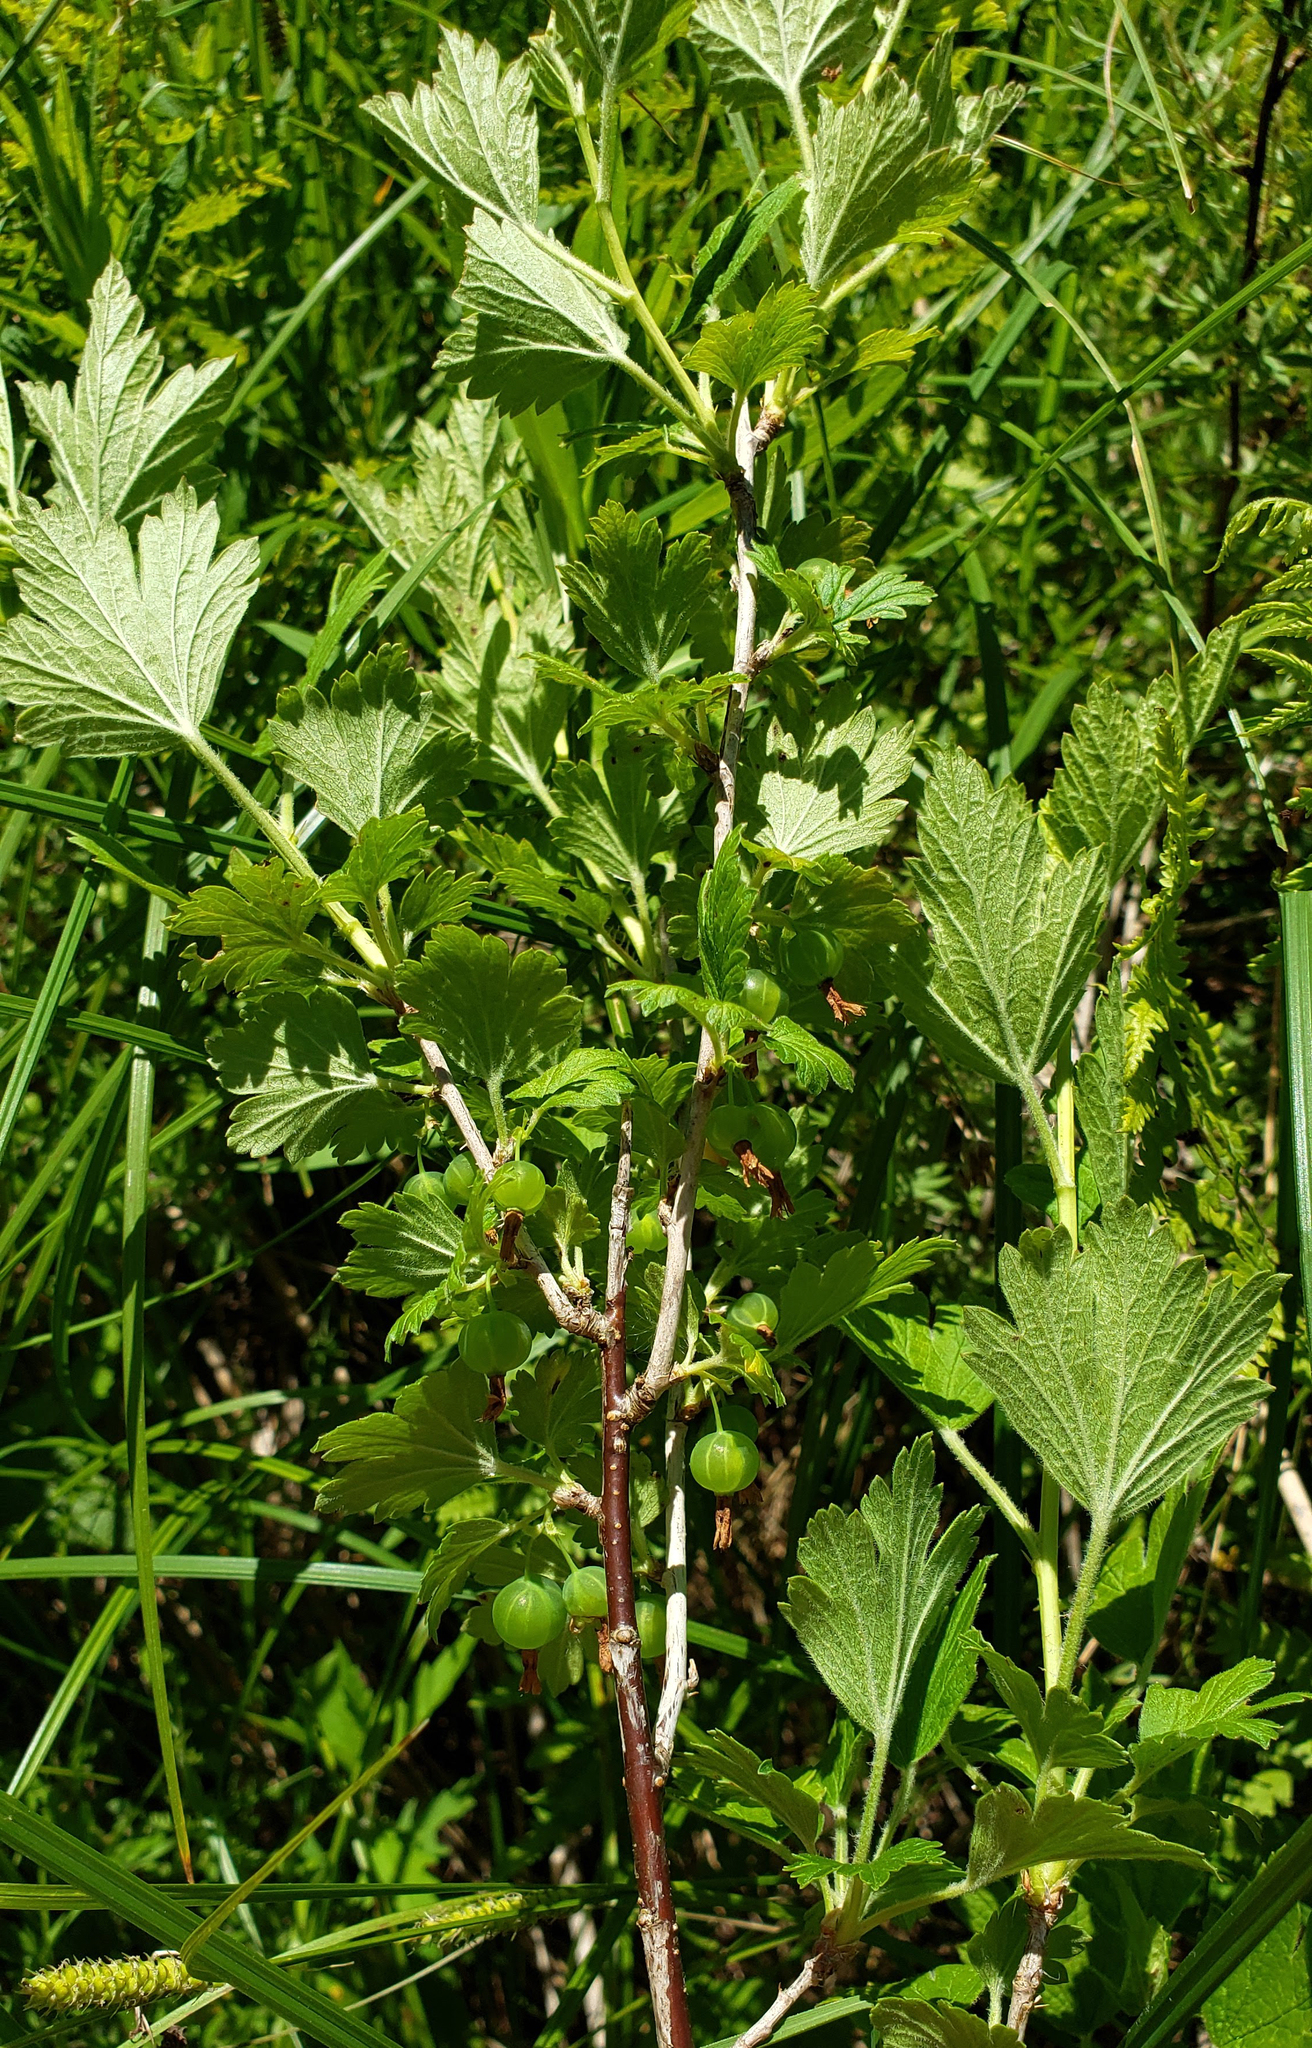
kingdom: Plantae
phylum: Tracheophyta
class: Magnoliopsida
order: Saxifragales
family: Grossulariaceae
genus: Ribes
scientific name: Ribes hirtellum
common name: Hairy gooseberry
